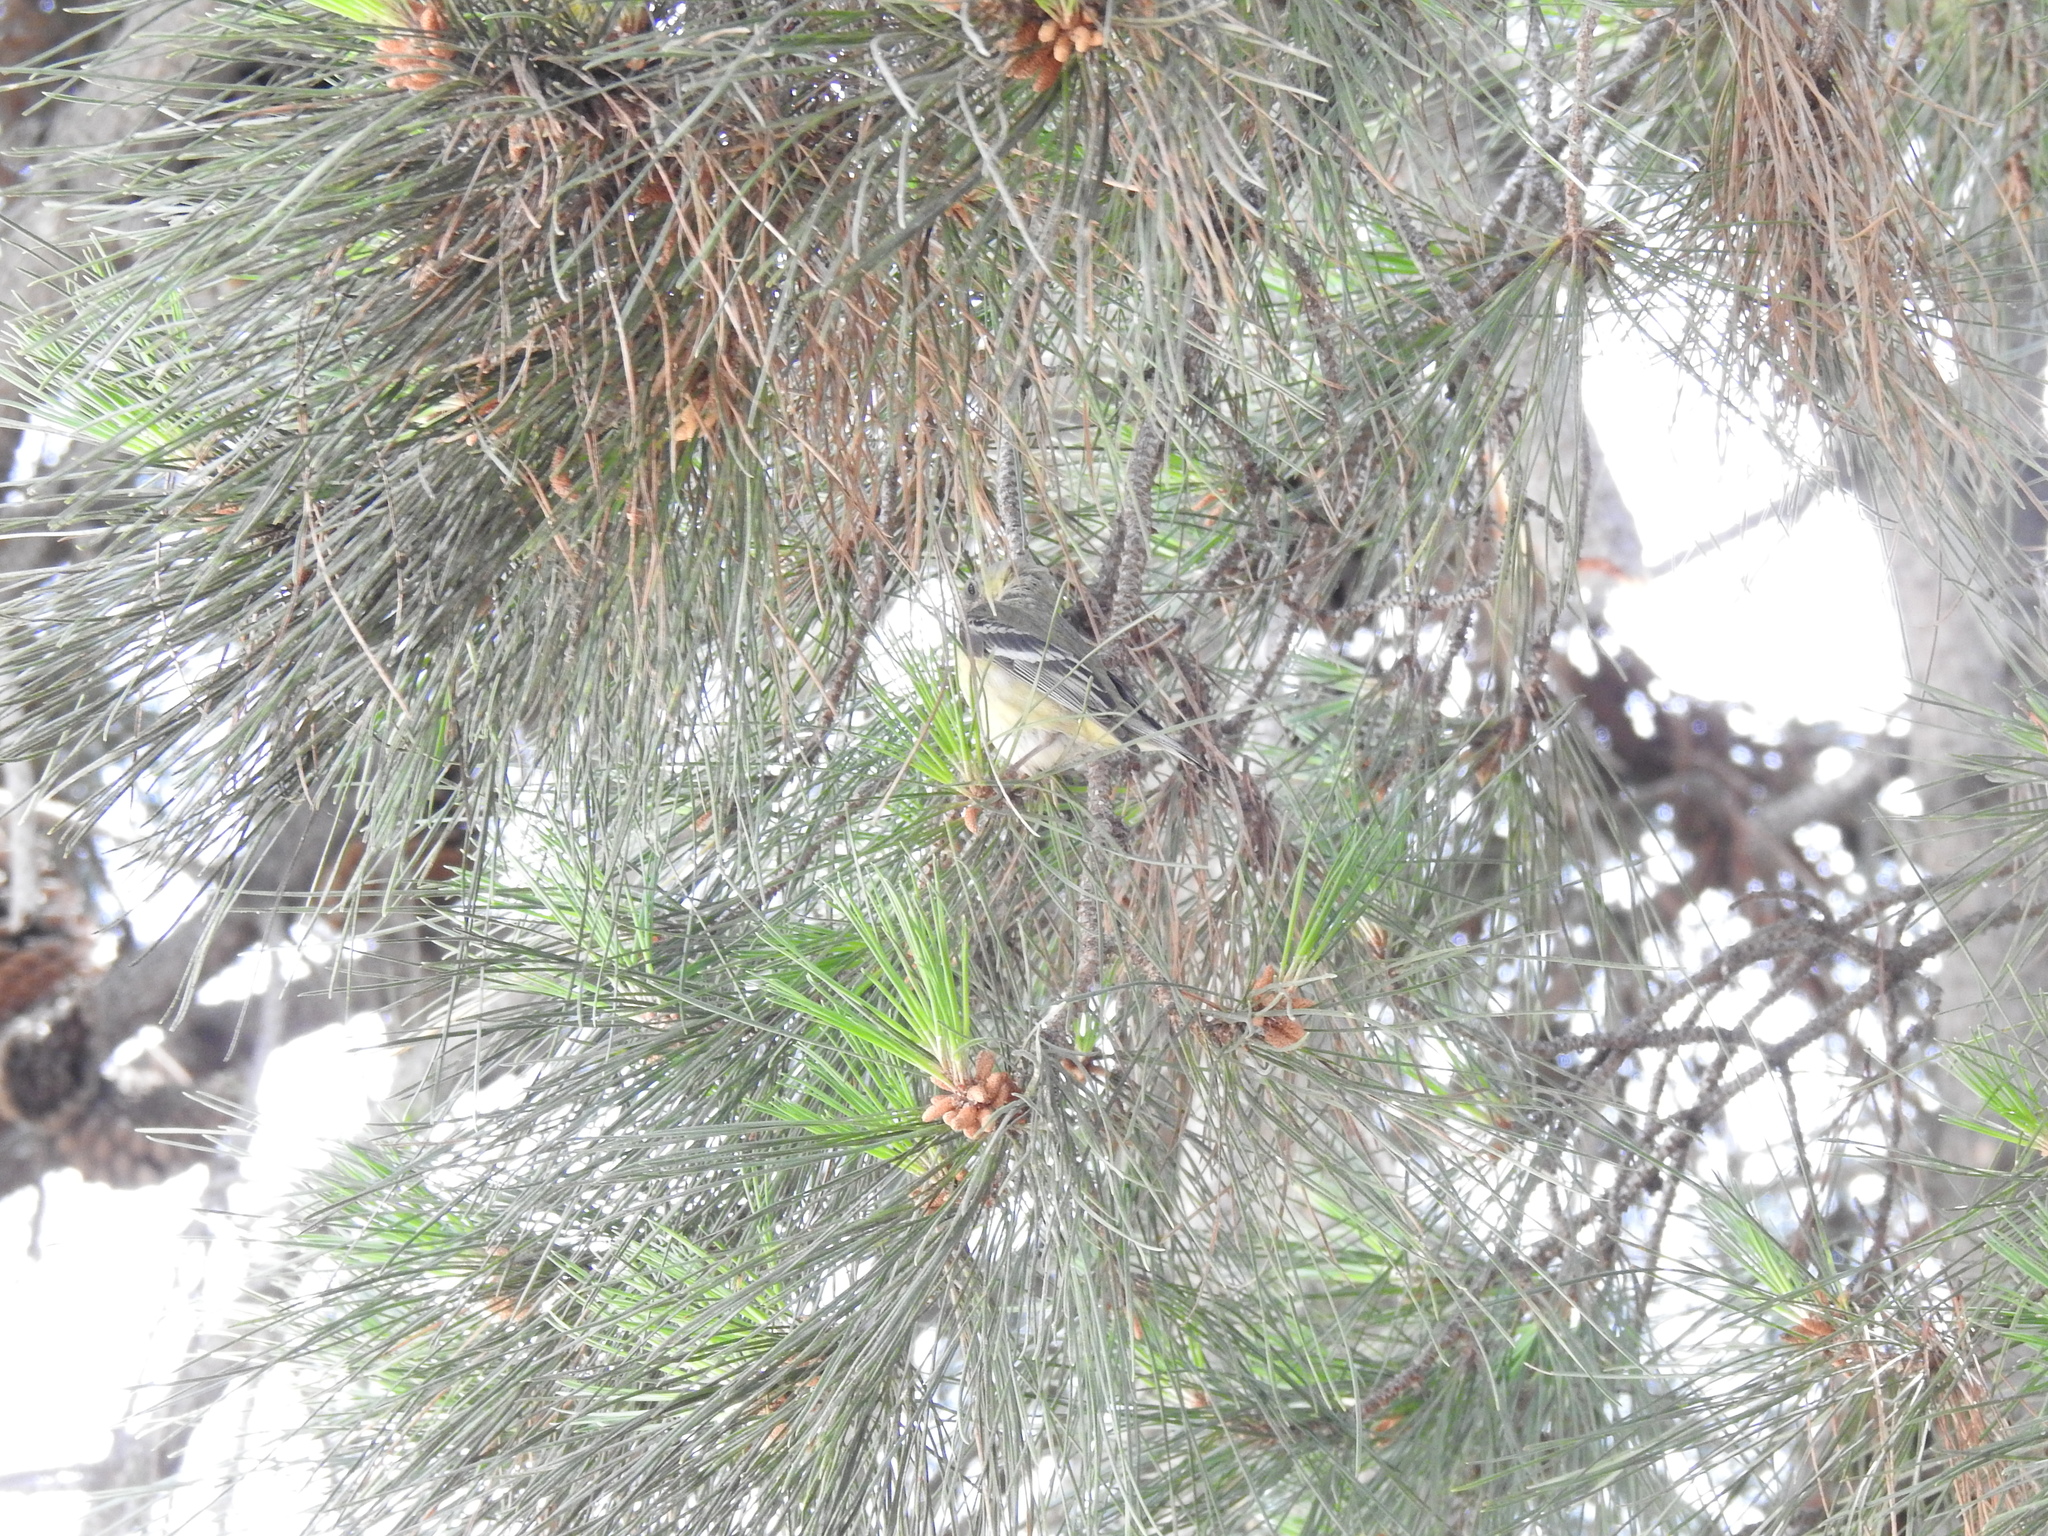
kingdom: Animalia
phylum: Chordata
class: Aves
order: Passeriformes
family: Fringillidae
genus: Spinus
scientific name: Spinus psaltria
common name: Lesser goldfinch
